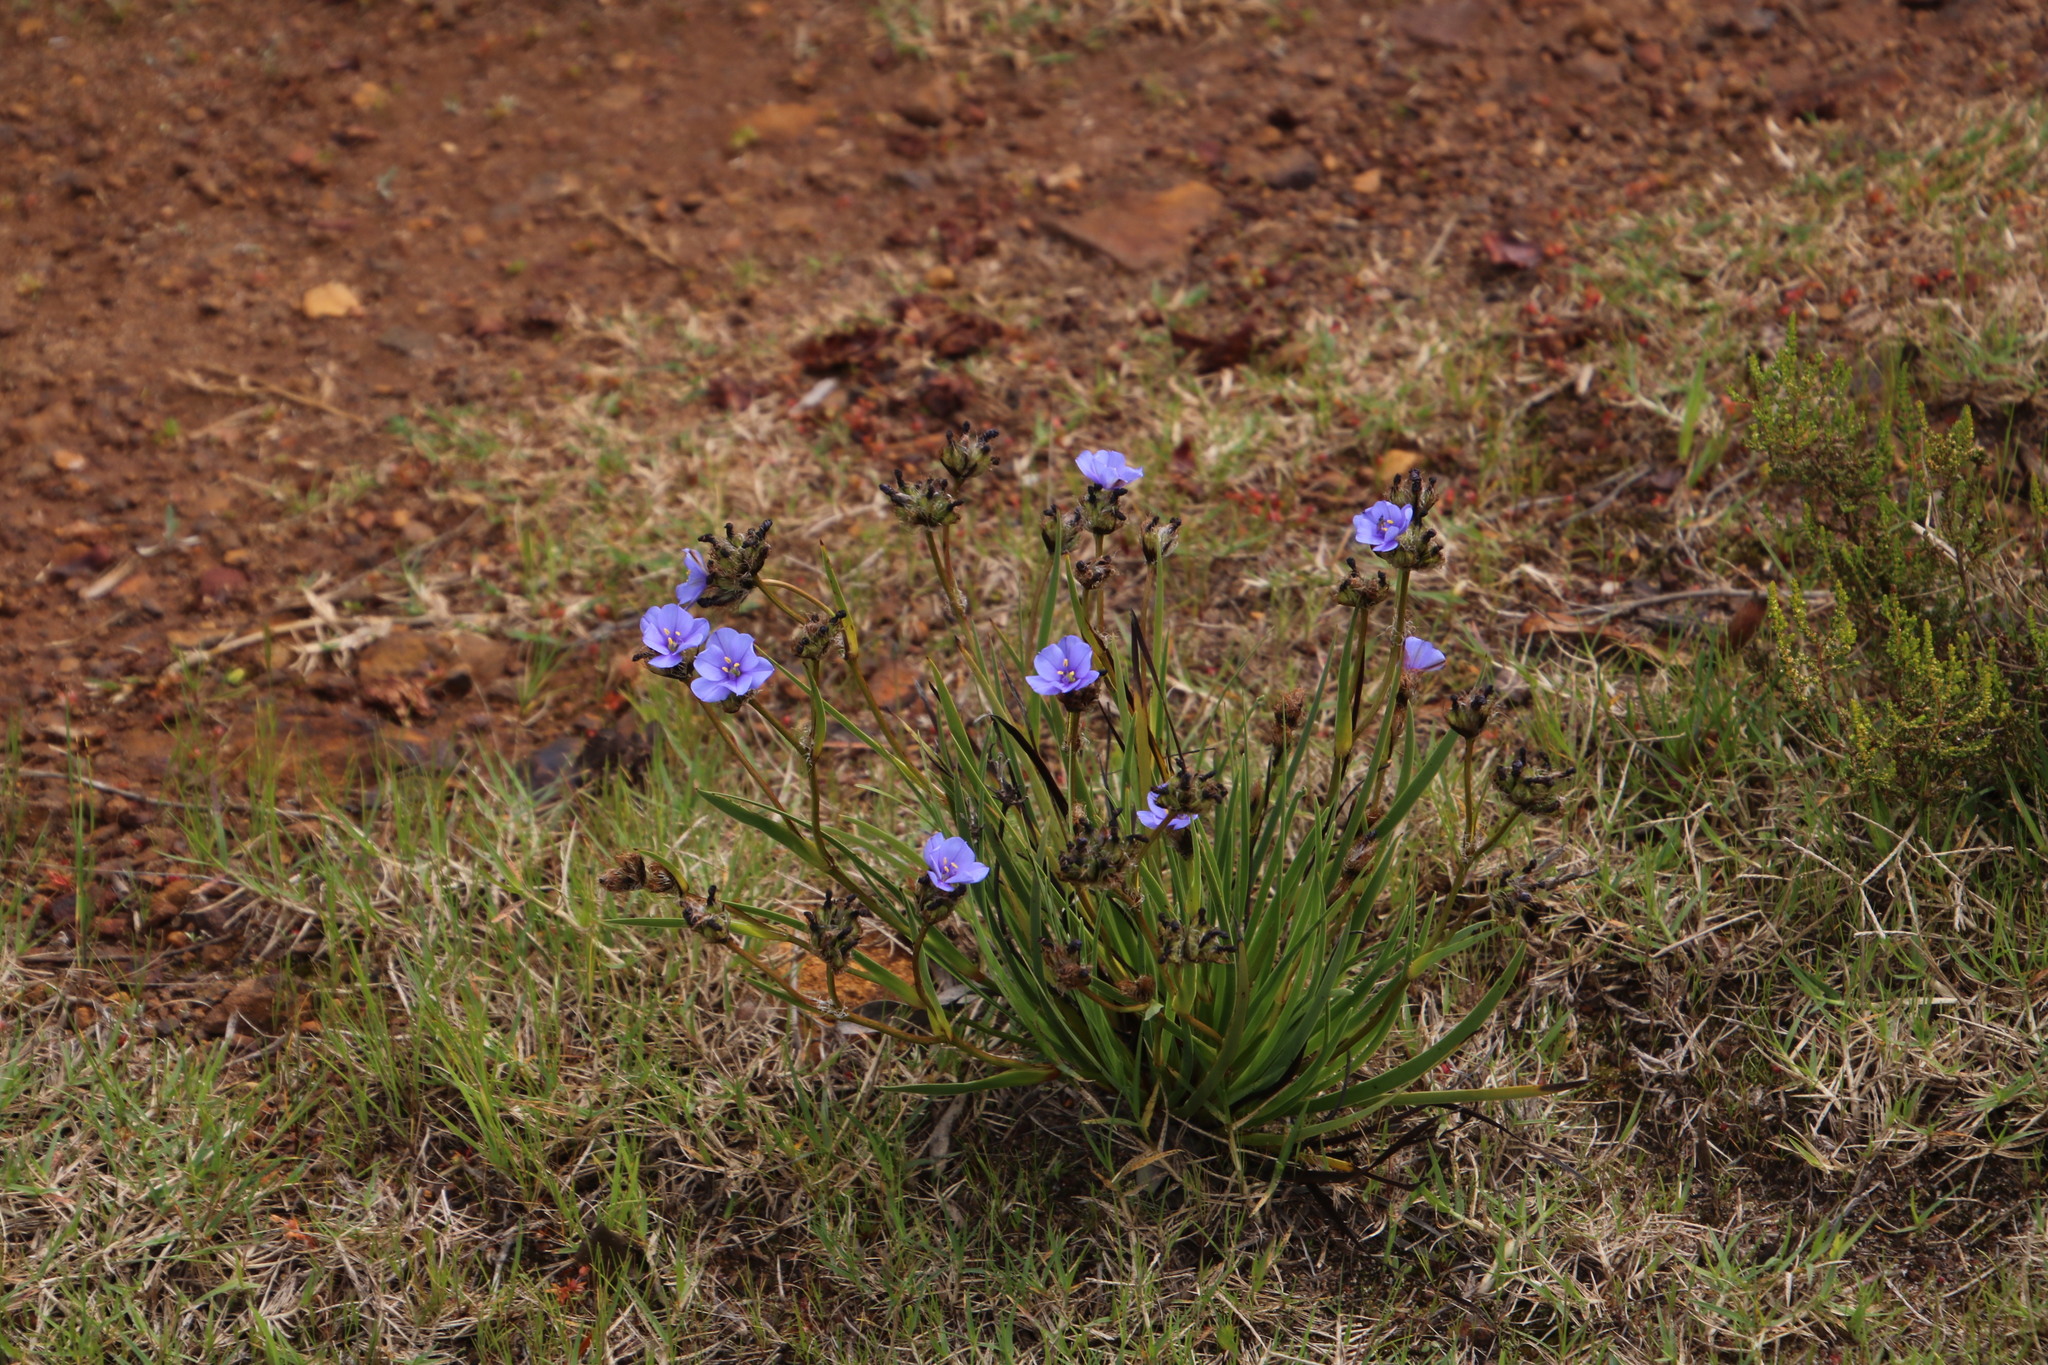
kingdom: Plantae
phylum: Tracheophyta
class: Liliopsida
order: Asparagales
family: Iridaceae
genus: Aristea
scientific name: Aristea africana
